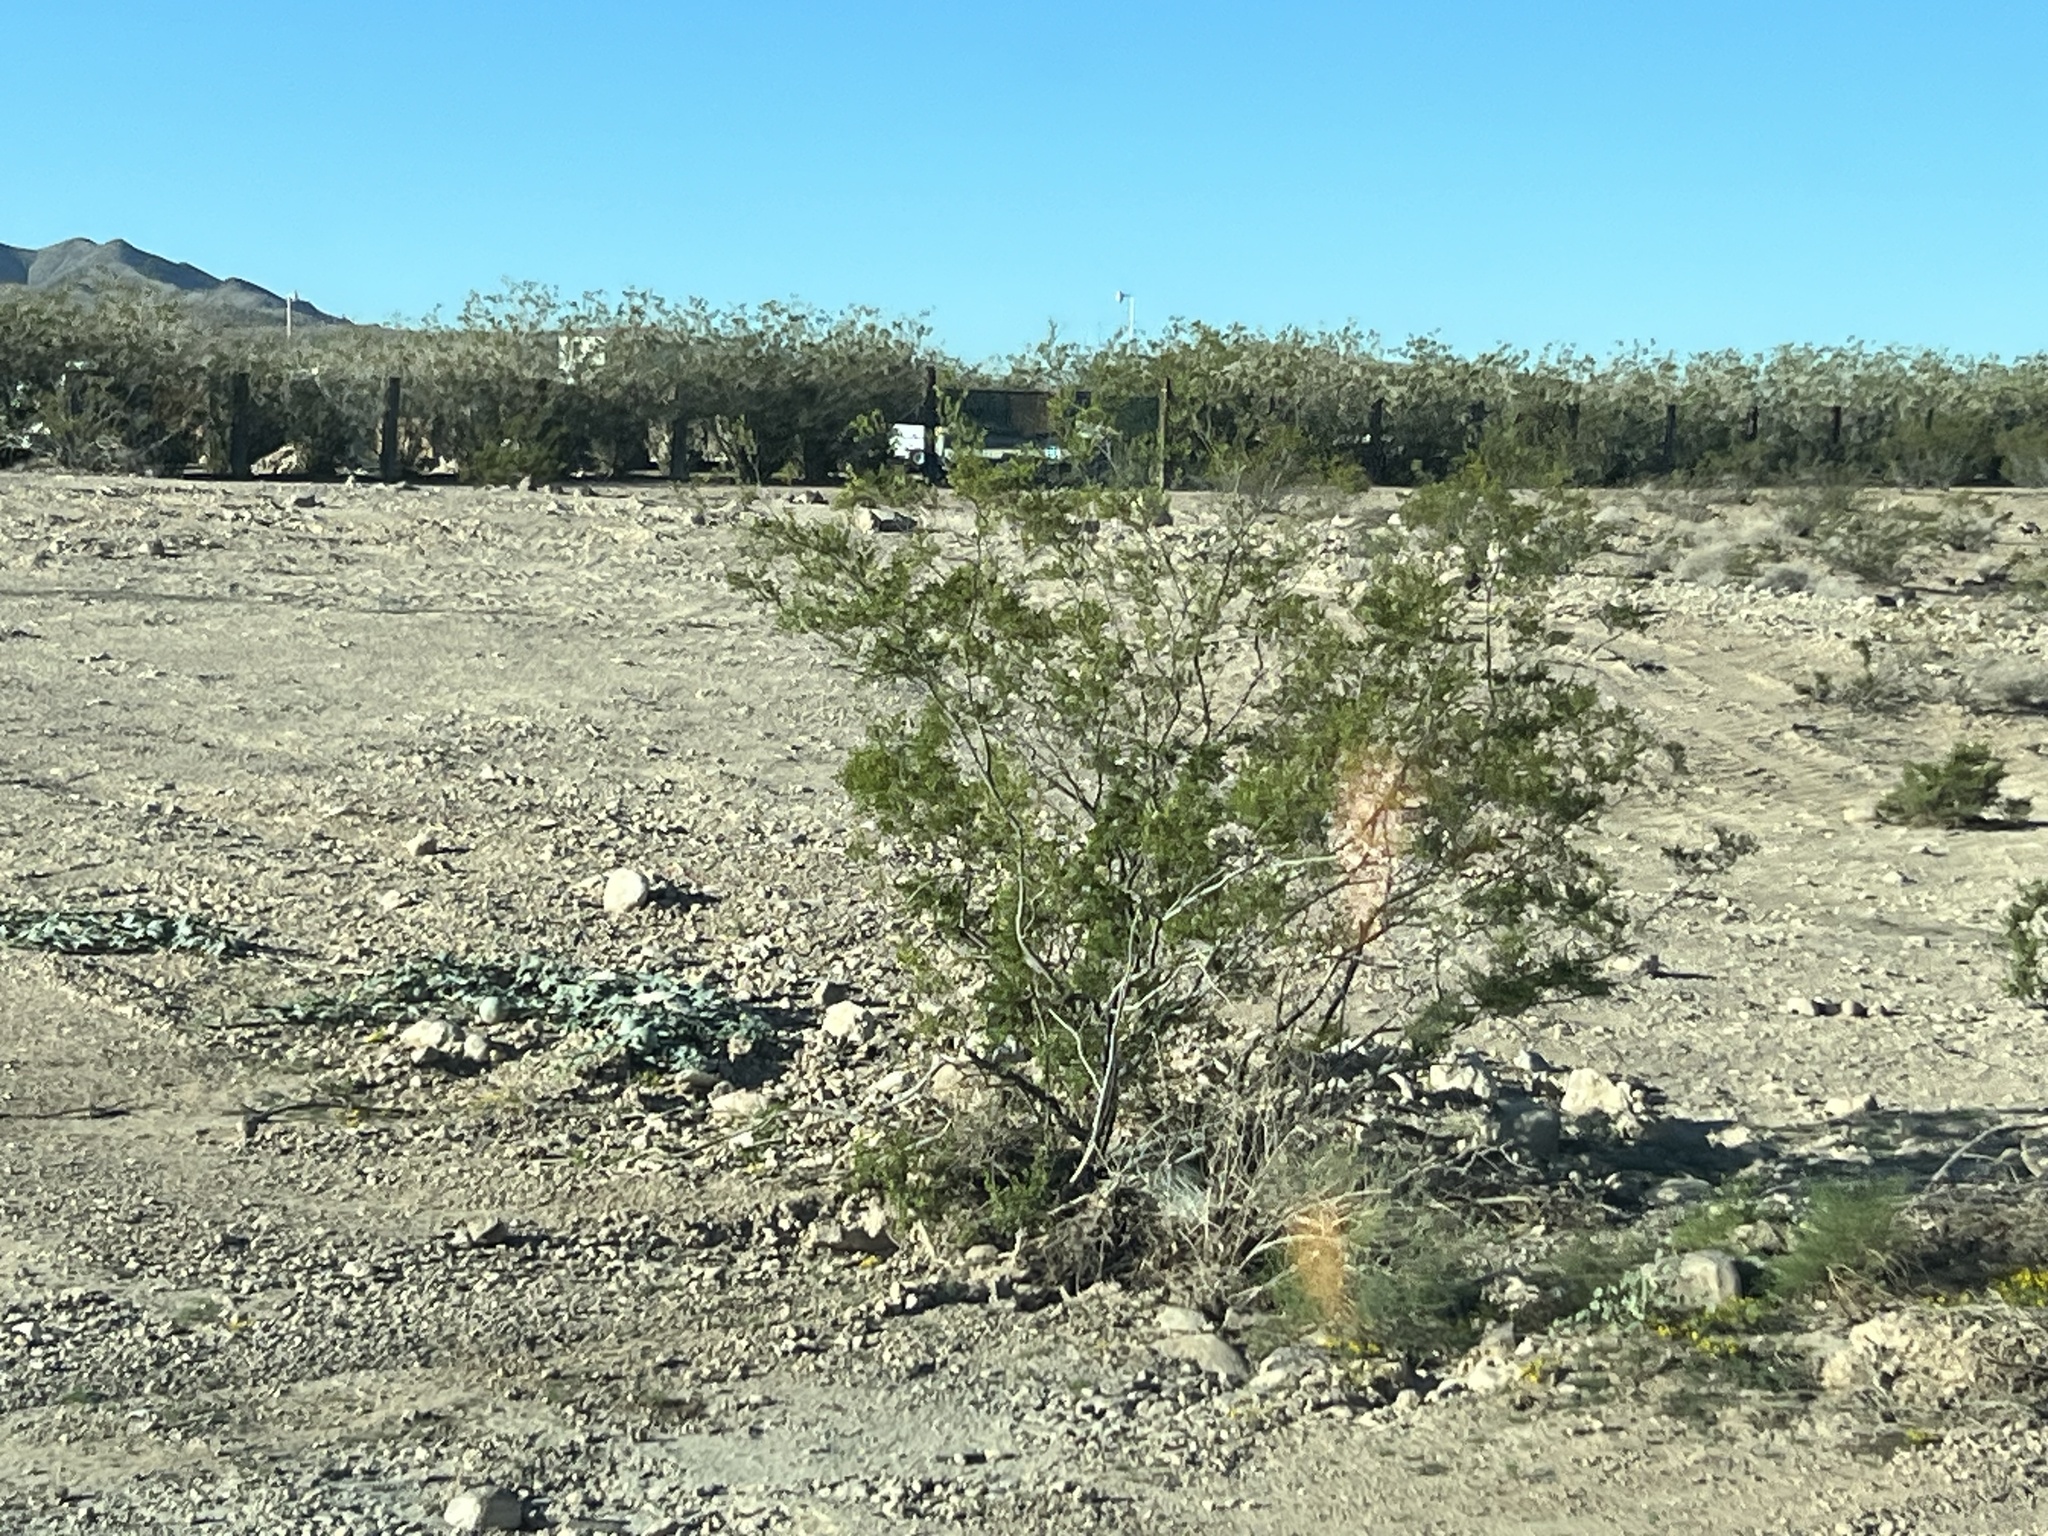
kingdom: Plantae
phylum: Tracheophyta
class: Magnoliopsida
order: Zygophyllales
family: Zygophyllaceae
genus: Larrea
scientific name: Larrea tridentata
